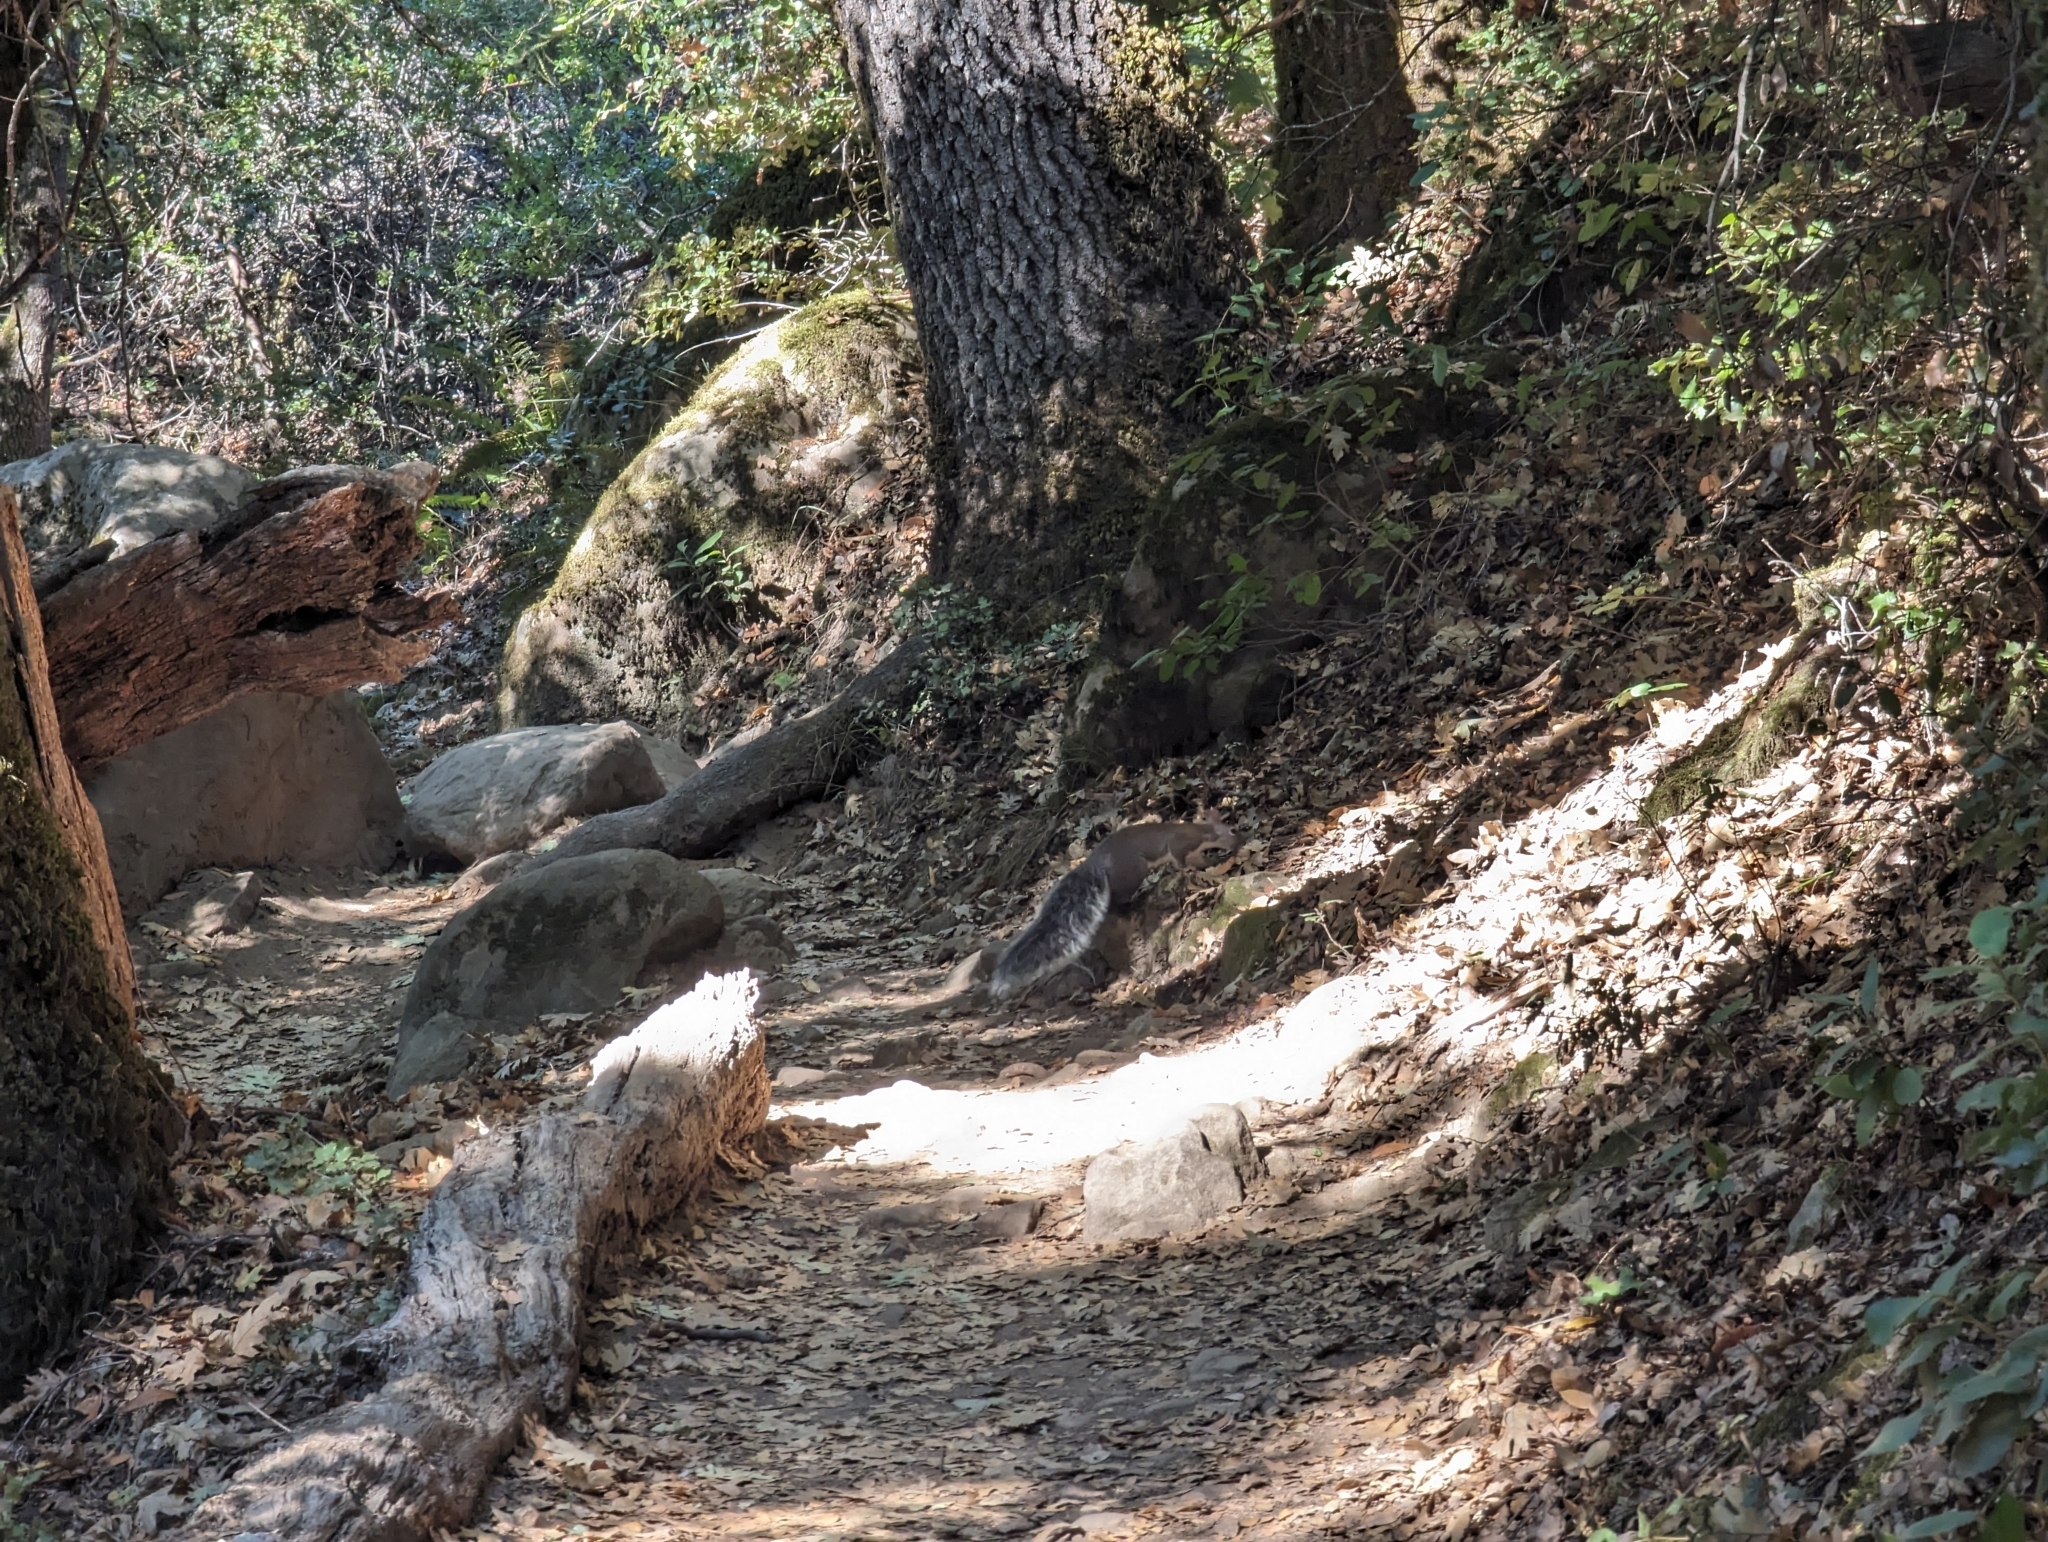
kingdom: Animalia
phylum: Chordata
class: Mammalia
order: Rodentia
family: Sciuridae
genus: Sciurus
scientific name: Sciurus griseus
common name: Western gray squirrel
